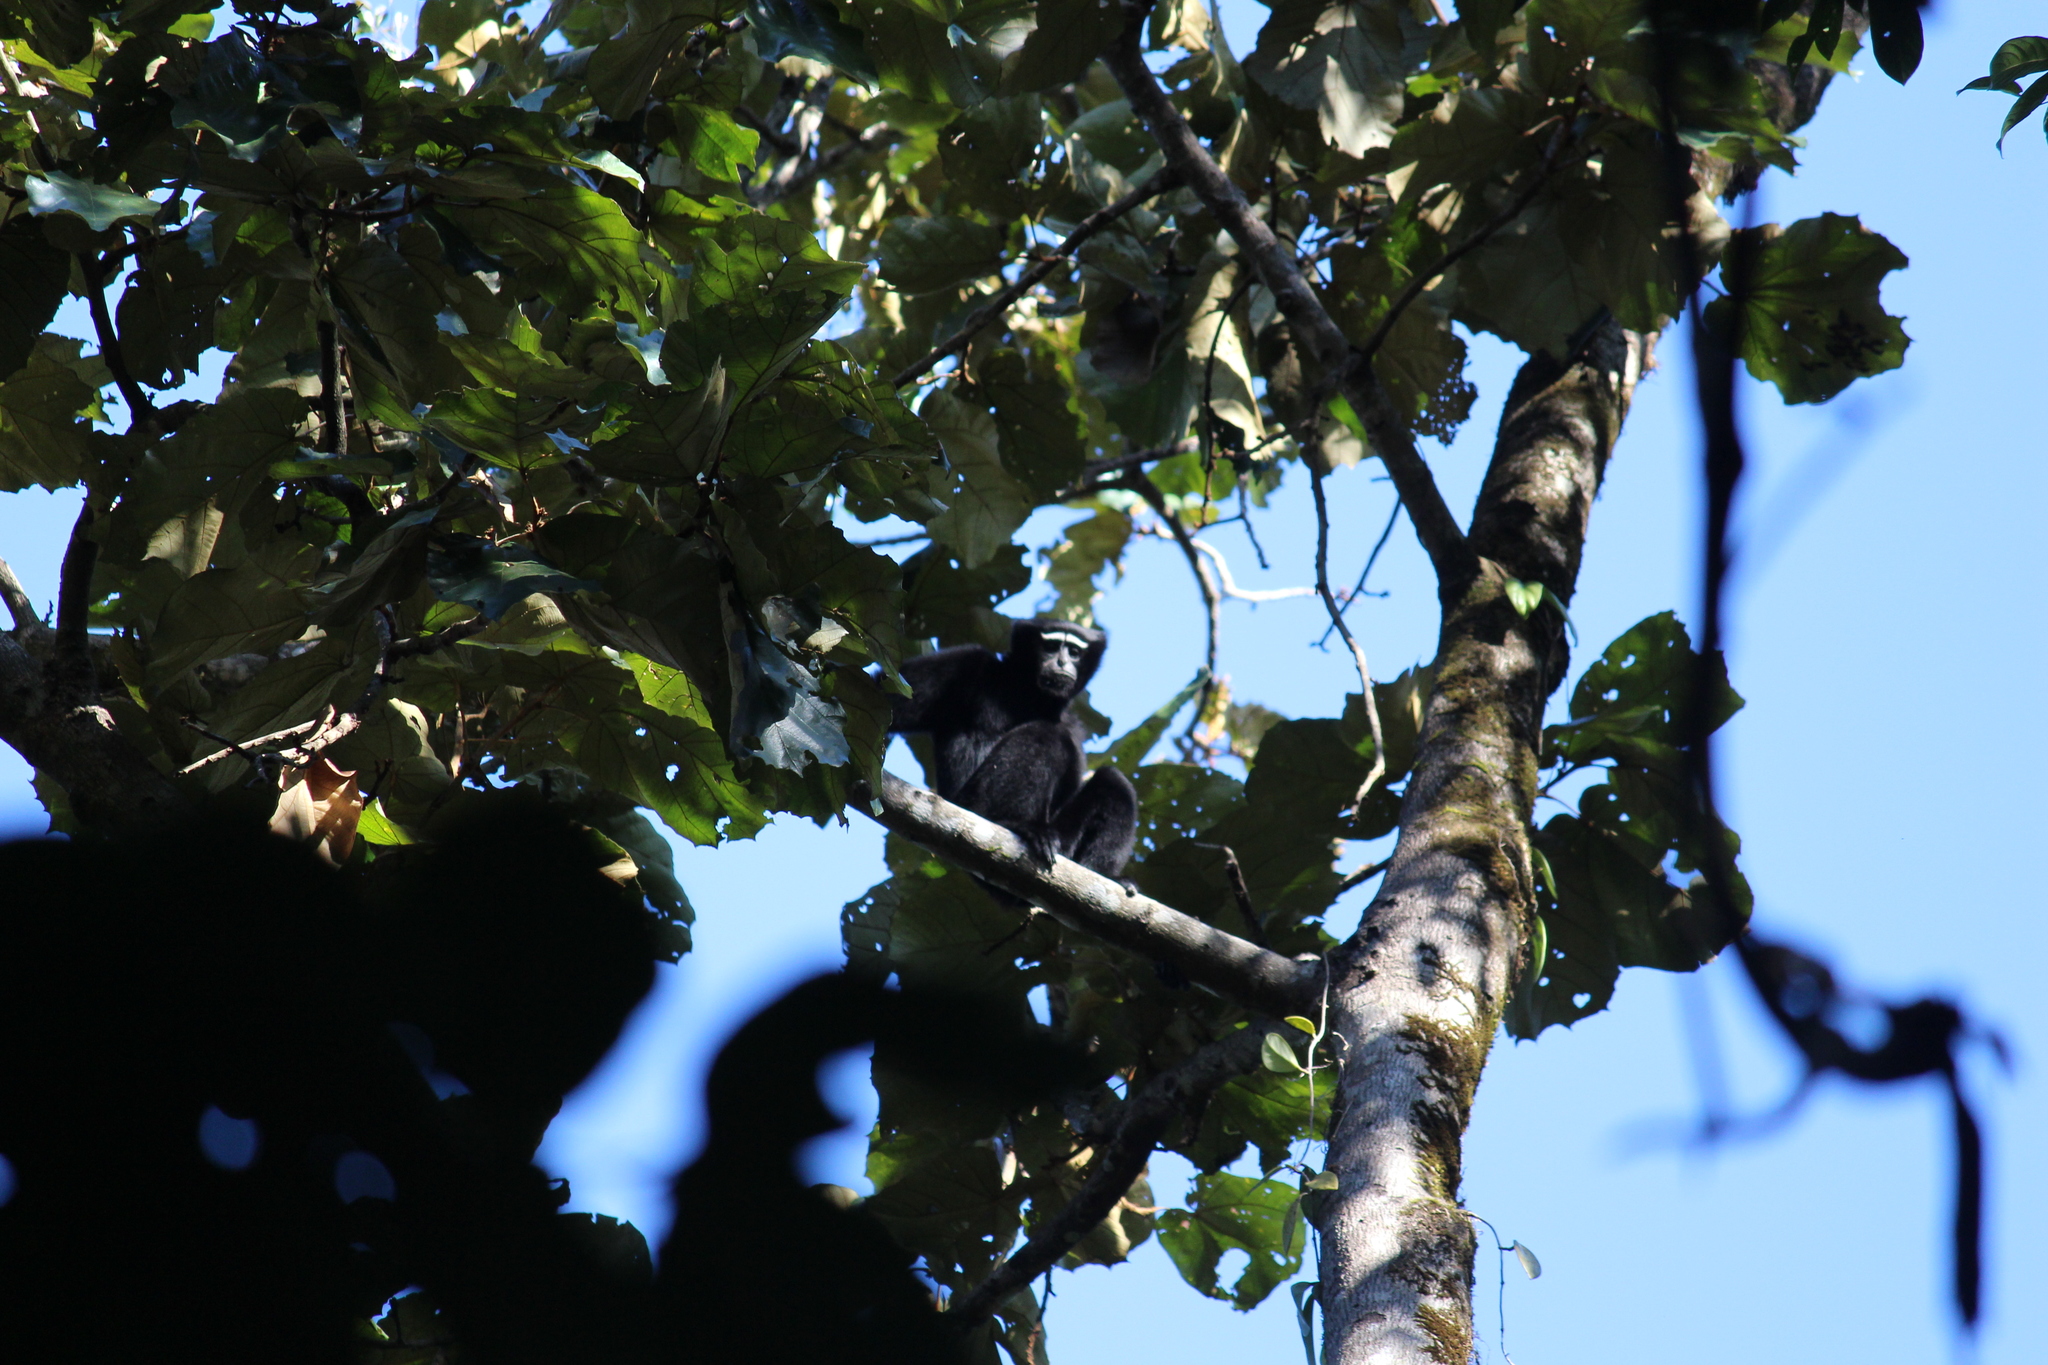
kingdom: Animalia
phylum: Chordata
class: Mammalia
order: Primates
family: Hylobatidae
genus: Hoolock
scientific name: Hoolock hoolock
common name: Western hoolock gibbon
